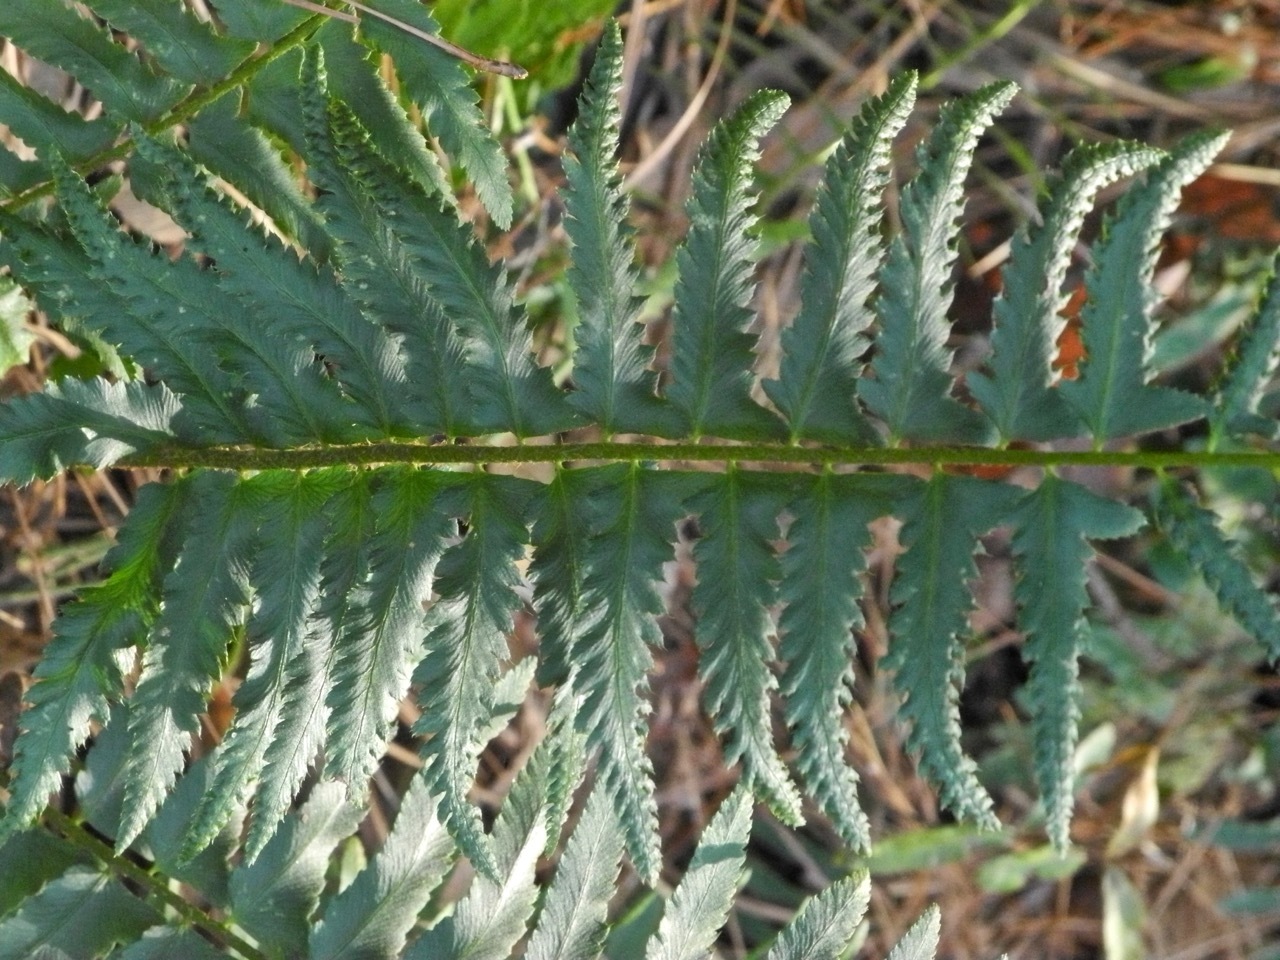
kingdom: Plantae
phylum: Tracheophyta
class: Polypodiopsida
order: Polypodiales
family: Dryopteridaceae
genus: Polystichum
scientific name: Polystichum acrostichoides
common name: Christmas fern
